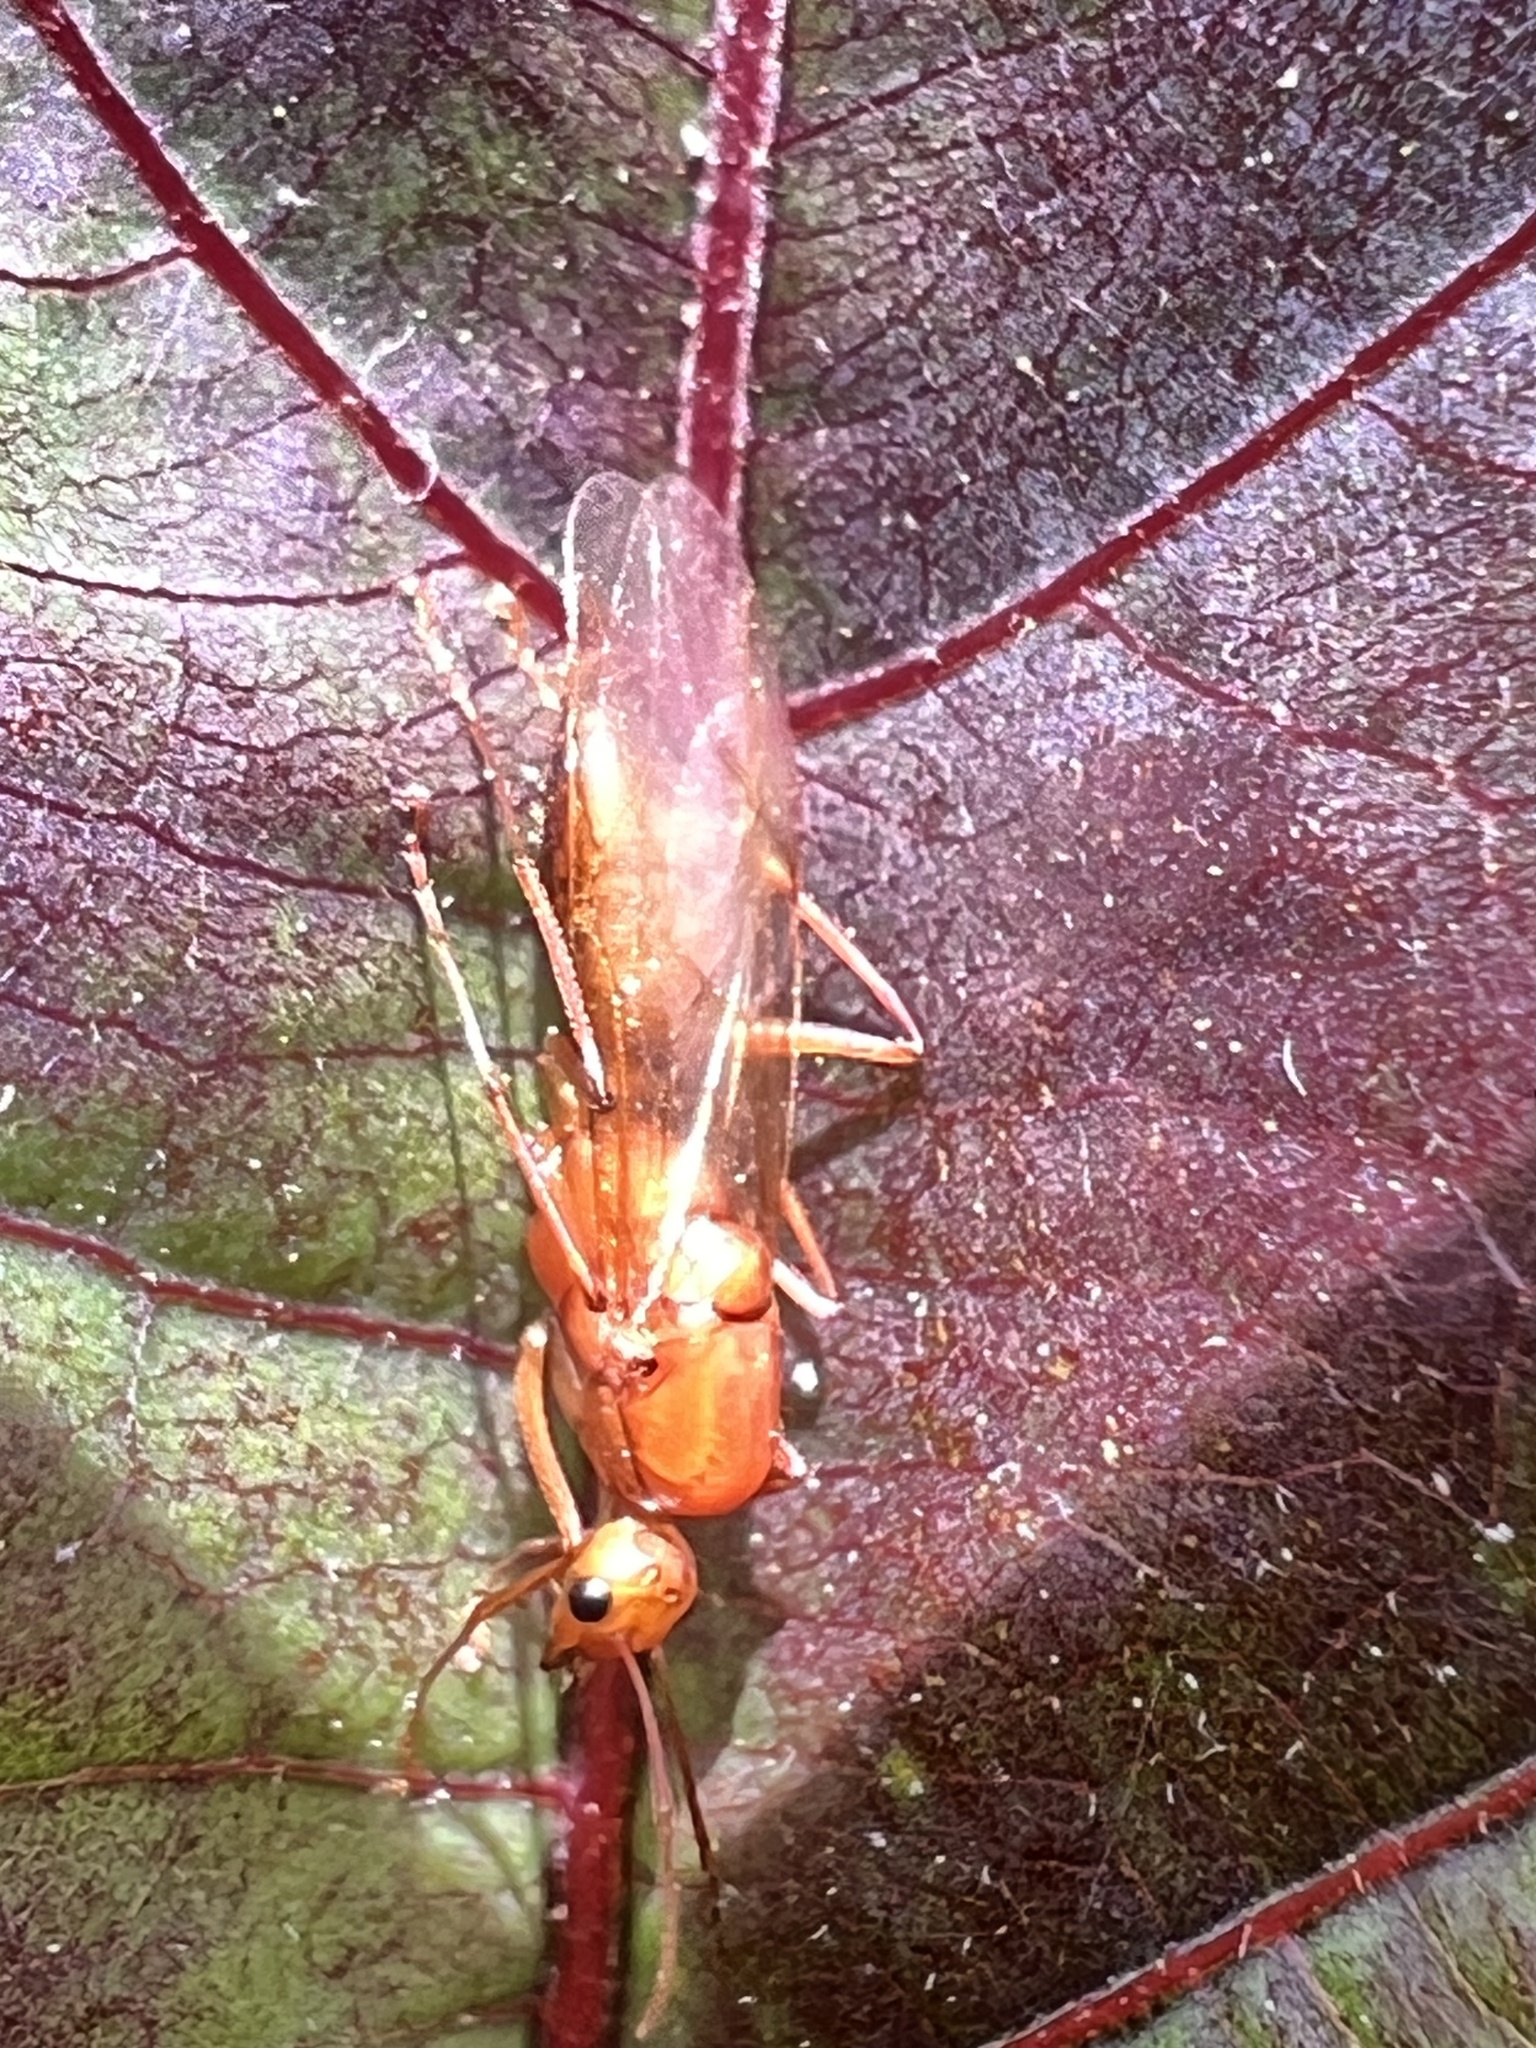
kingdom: Animalia
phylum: Arthropoda
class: Insecta
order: Hymenoptera
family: Formicidae
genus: Camponotus
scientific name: Camponotus castaneus
